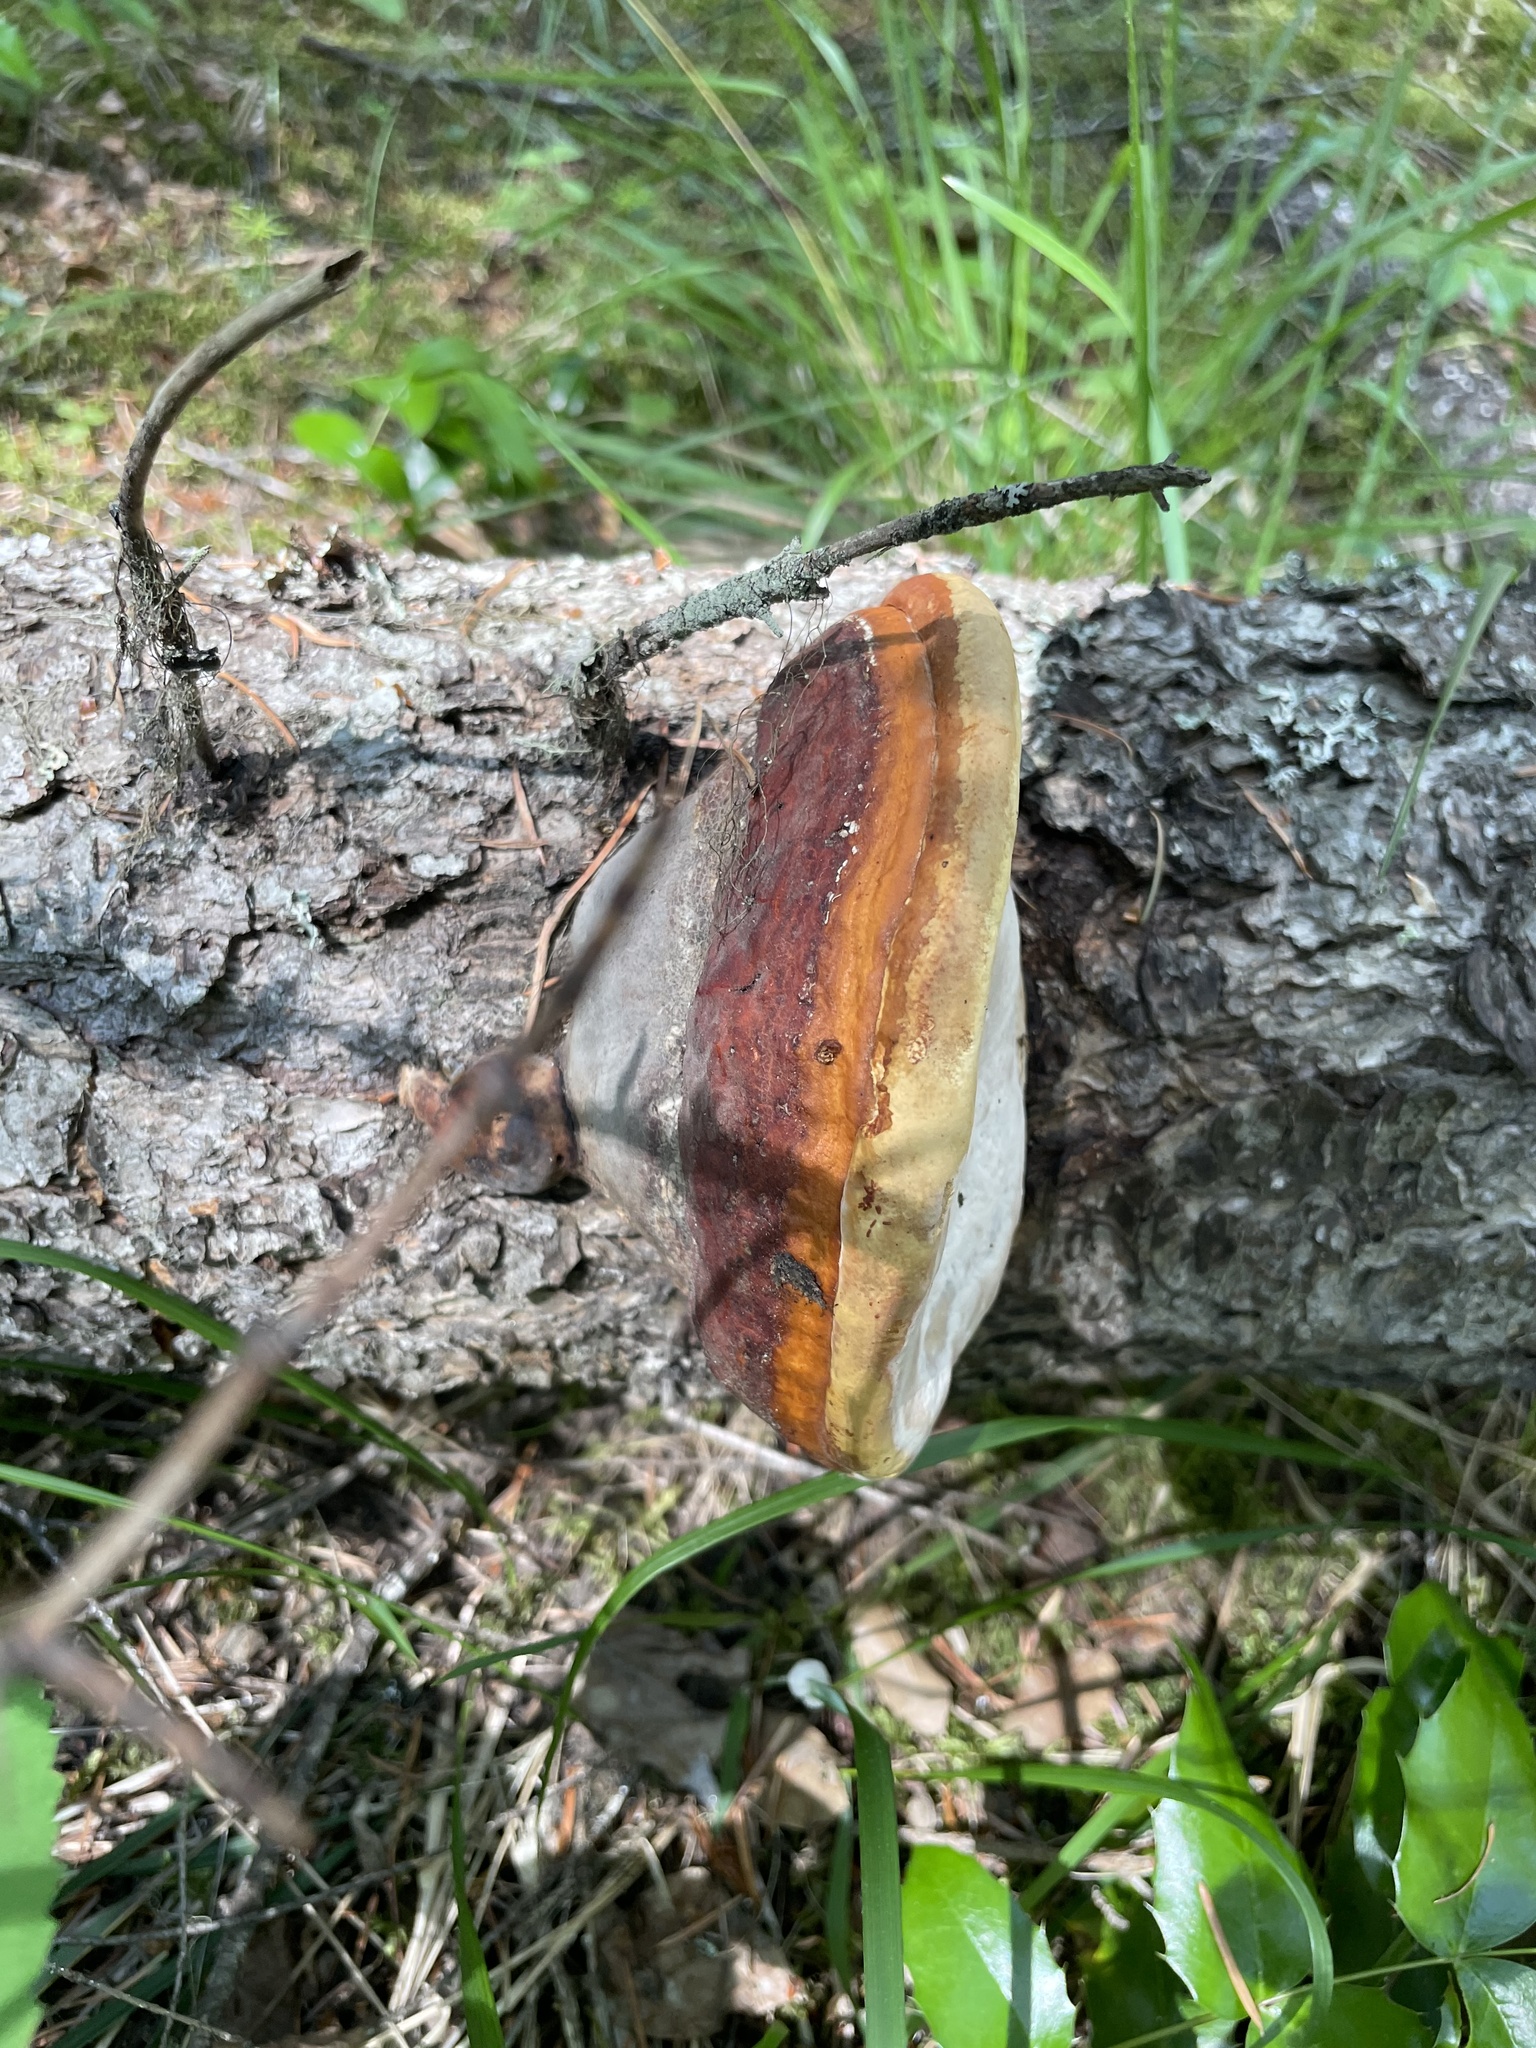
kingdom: Fungi
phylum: Basidiomycota
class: Agaricomycetes
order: Polyporales
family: Fomitopsidaceae
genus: Fomitopsis
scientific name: Fomitopsis mounceae
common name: Northern red belt
